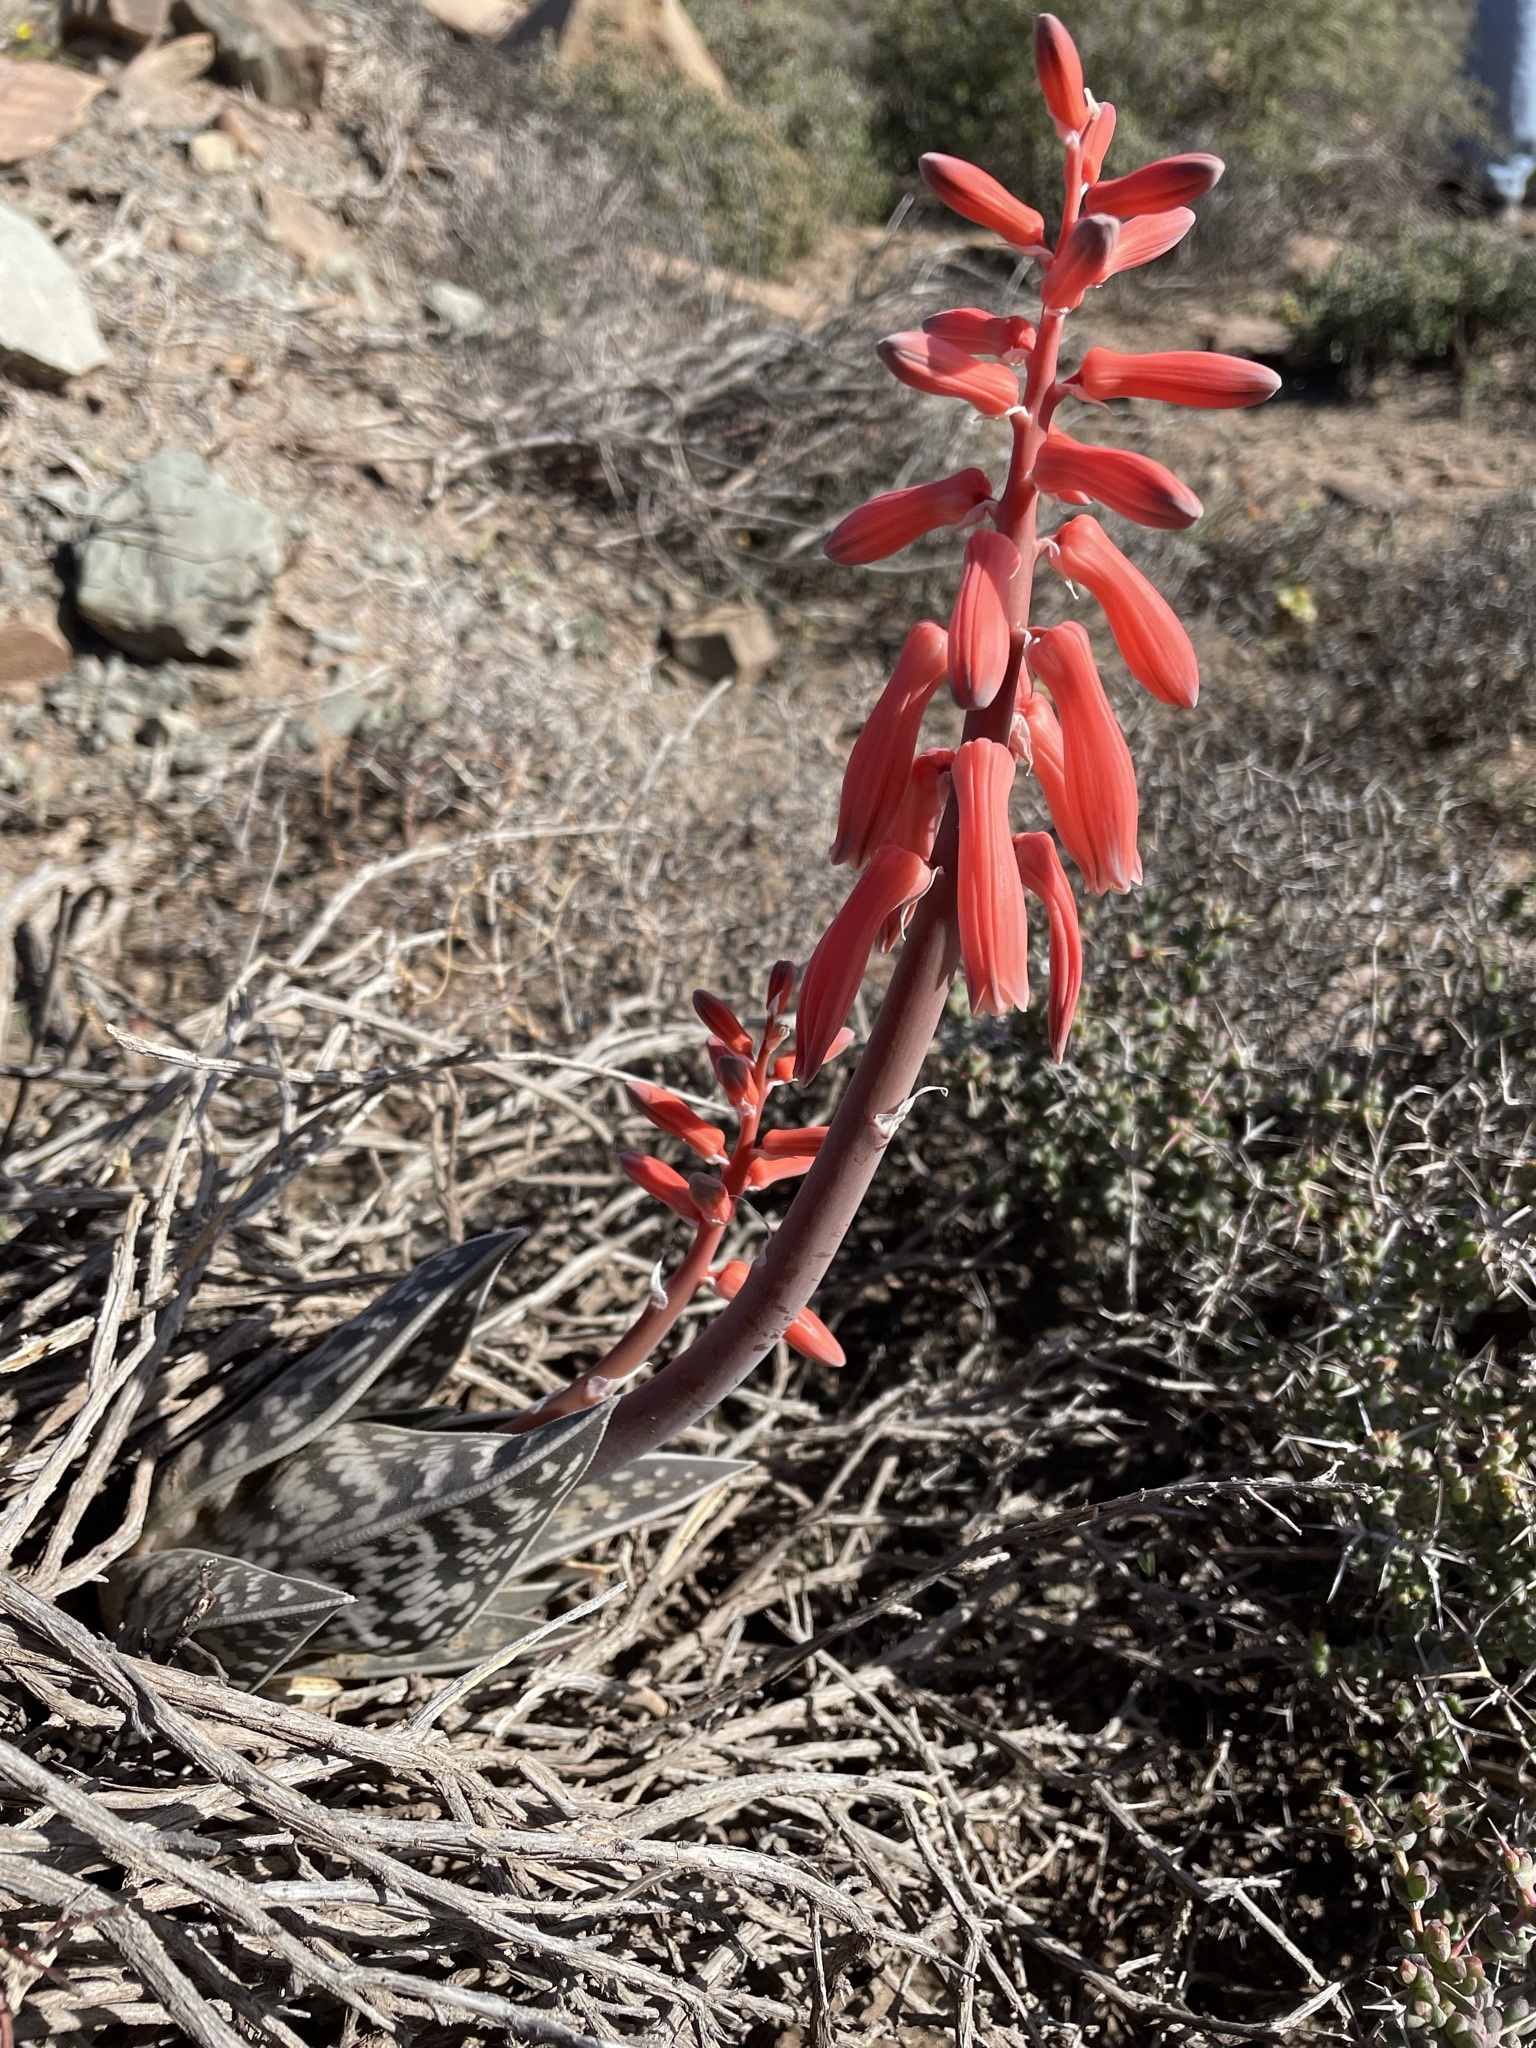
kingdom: Plantae
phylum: Tracheophyta
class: Liliopsida
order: Asparagales
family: Asphodelaceae
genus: Gonialoe
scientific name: Gonialoe variegata
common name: Aloe variegata
